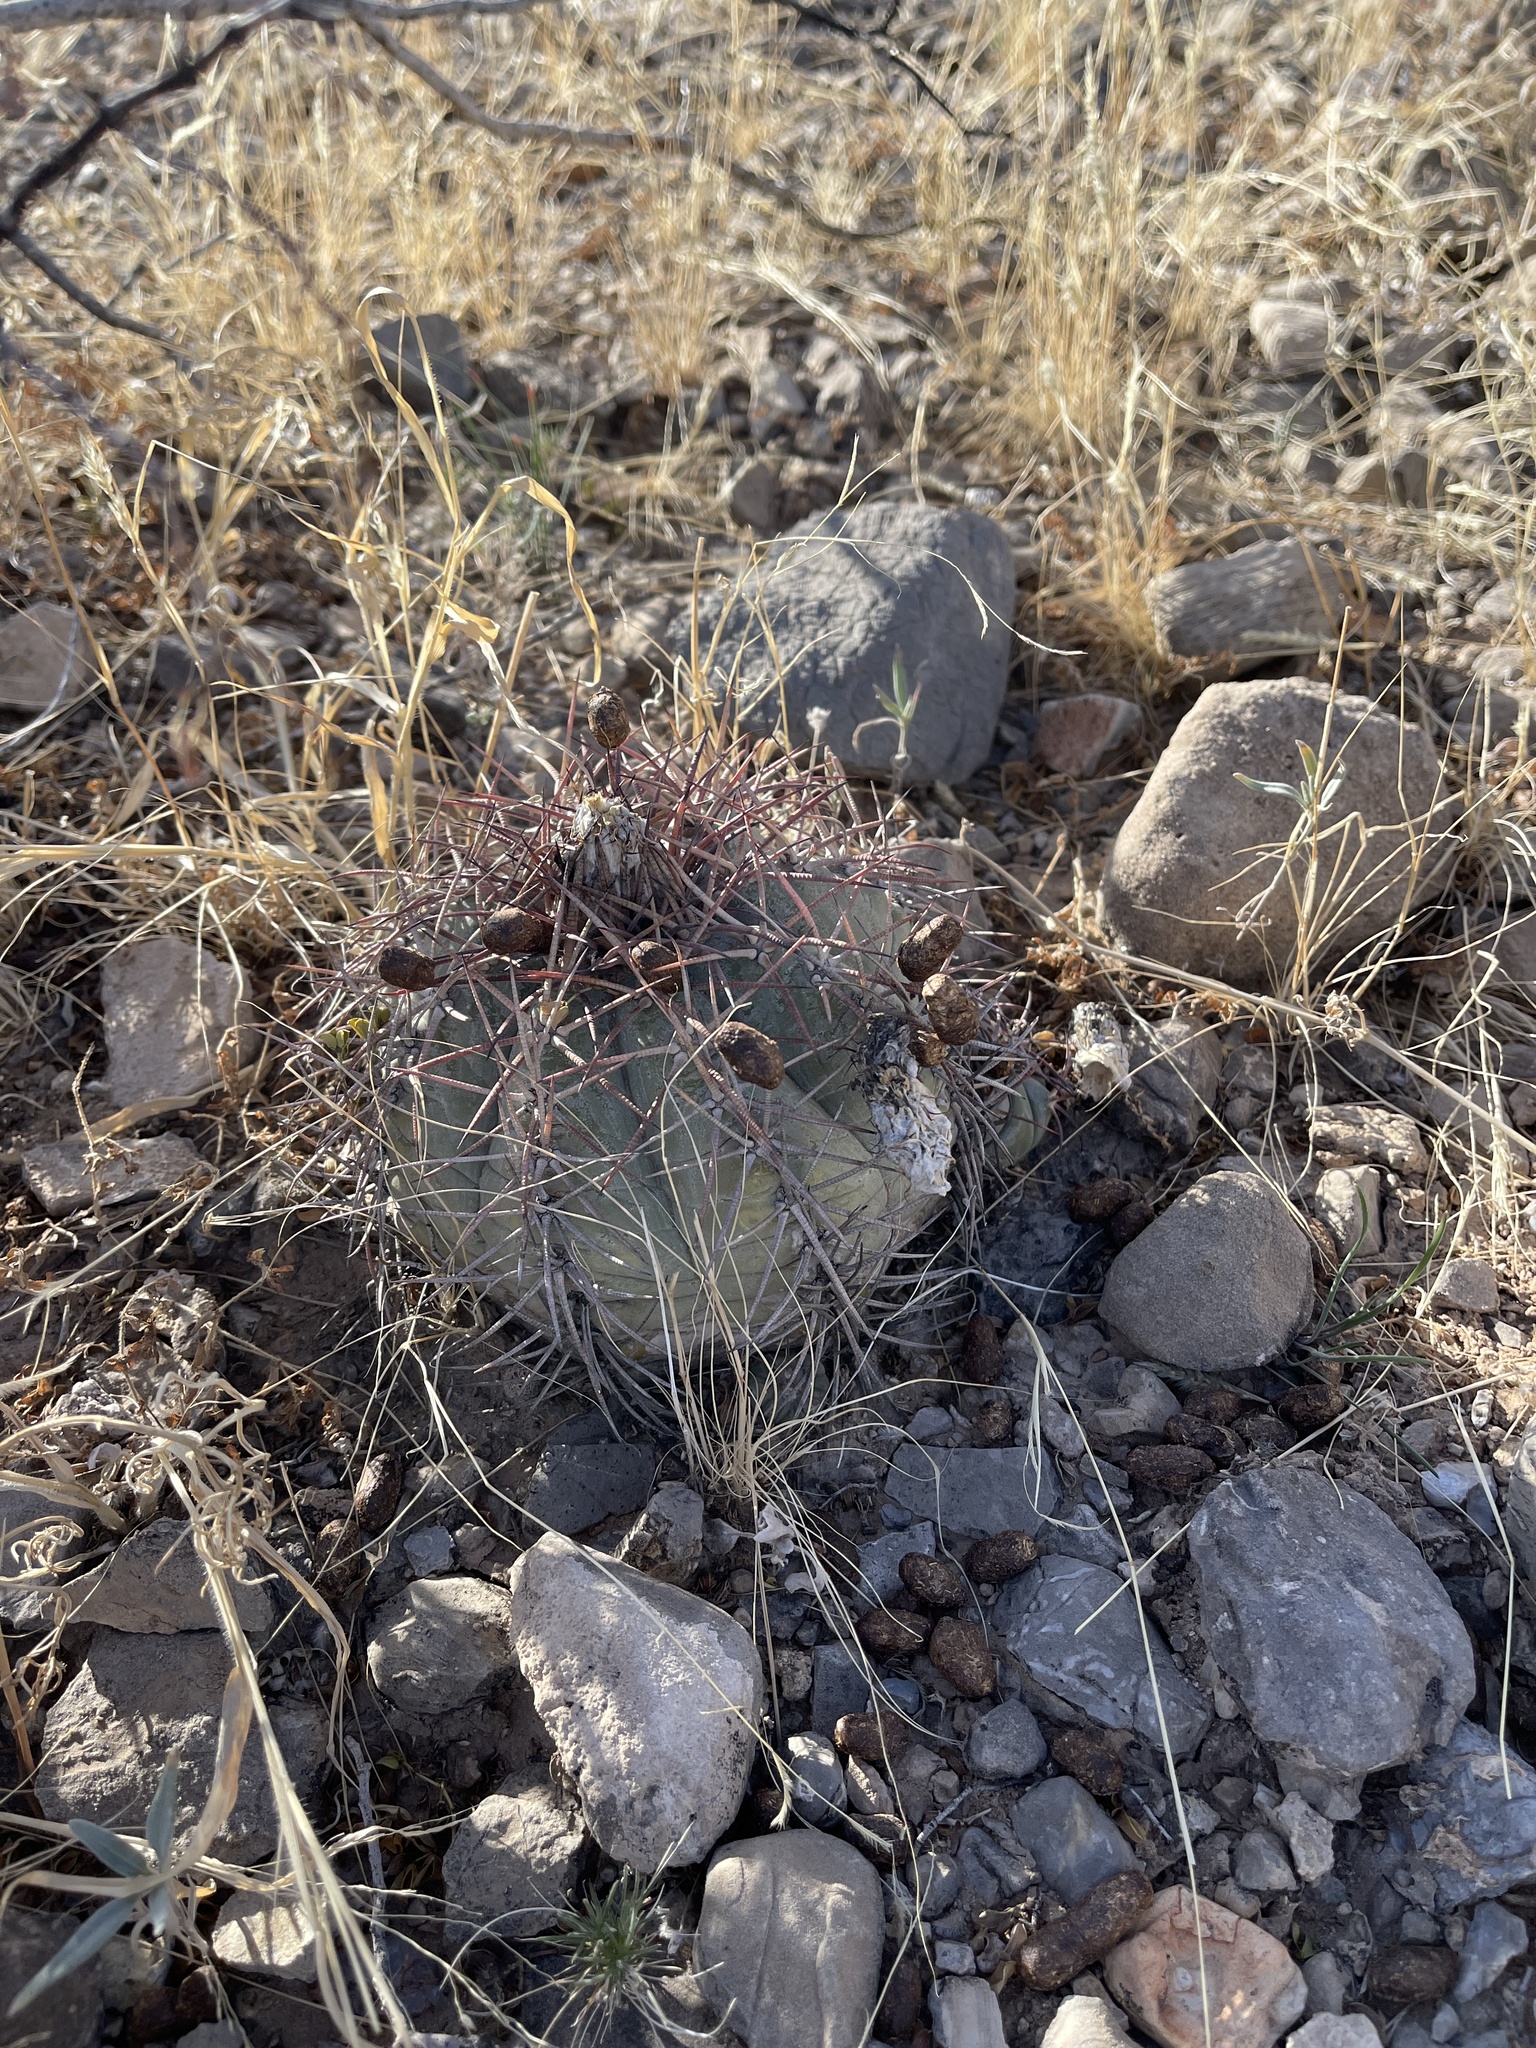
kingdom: Plantae
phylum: Tracheophyta
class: Magnoliopsida
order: Caryophyllales
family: Cactaceae
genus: Echinocactus
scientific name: Echinocactus horizonthalonius
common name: Devilshead
